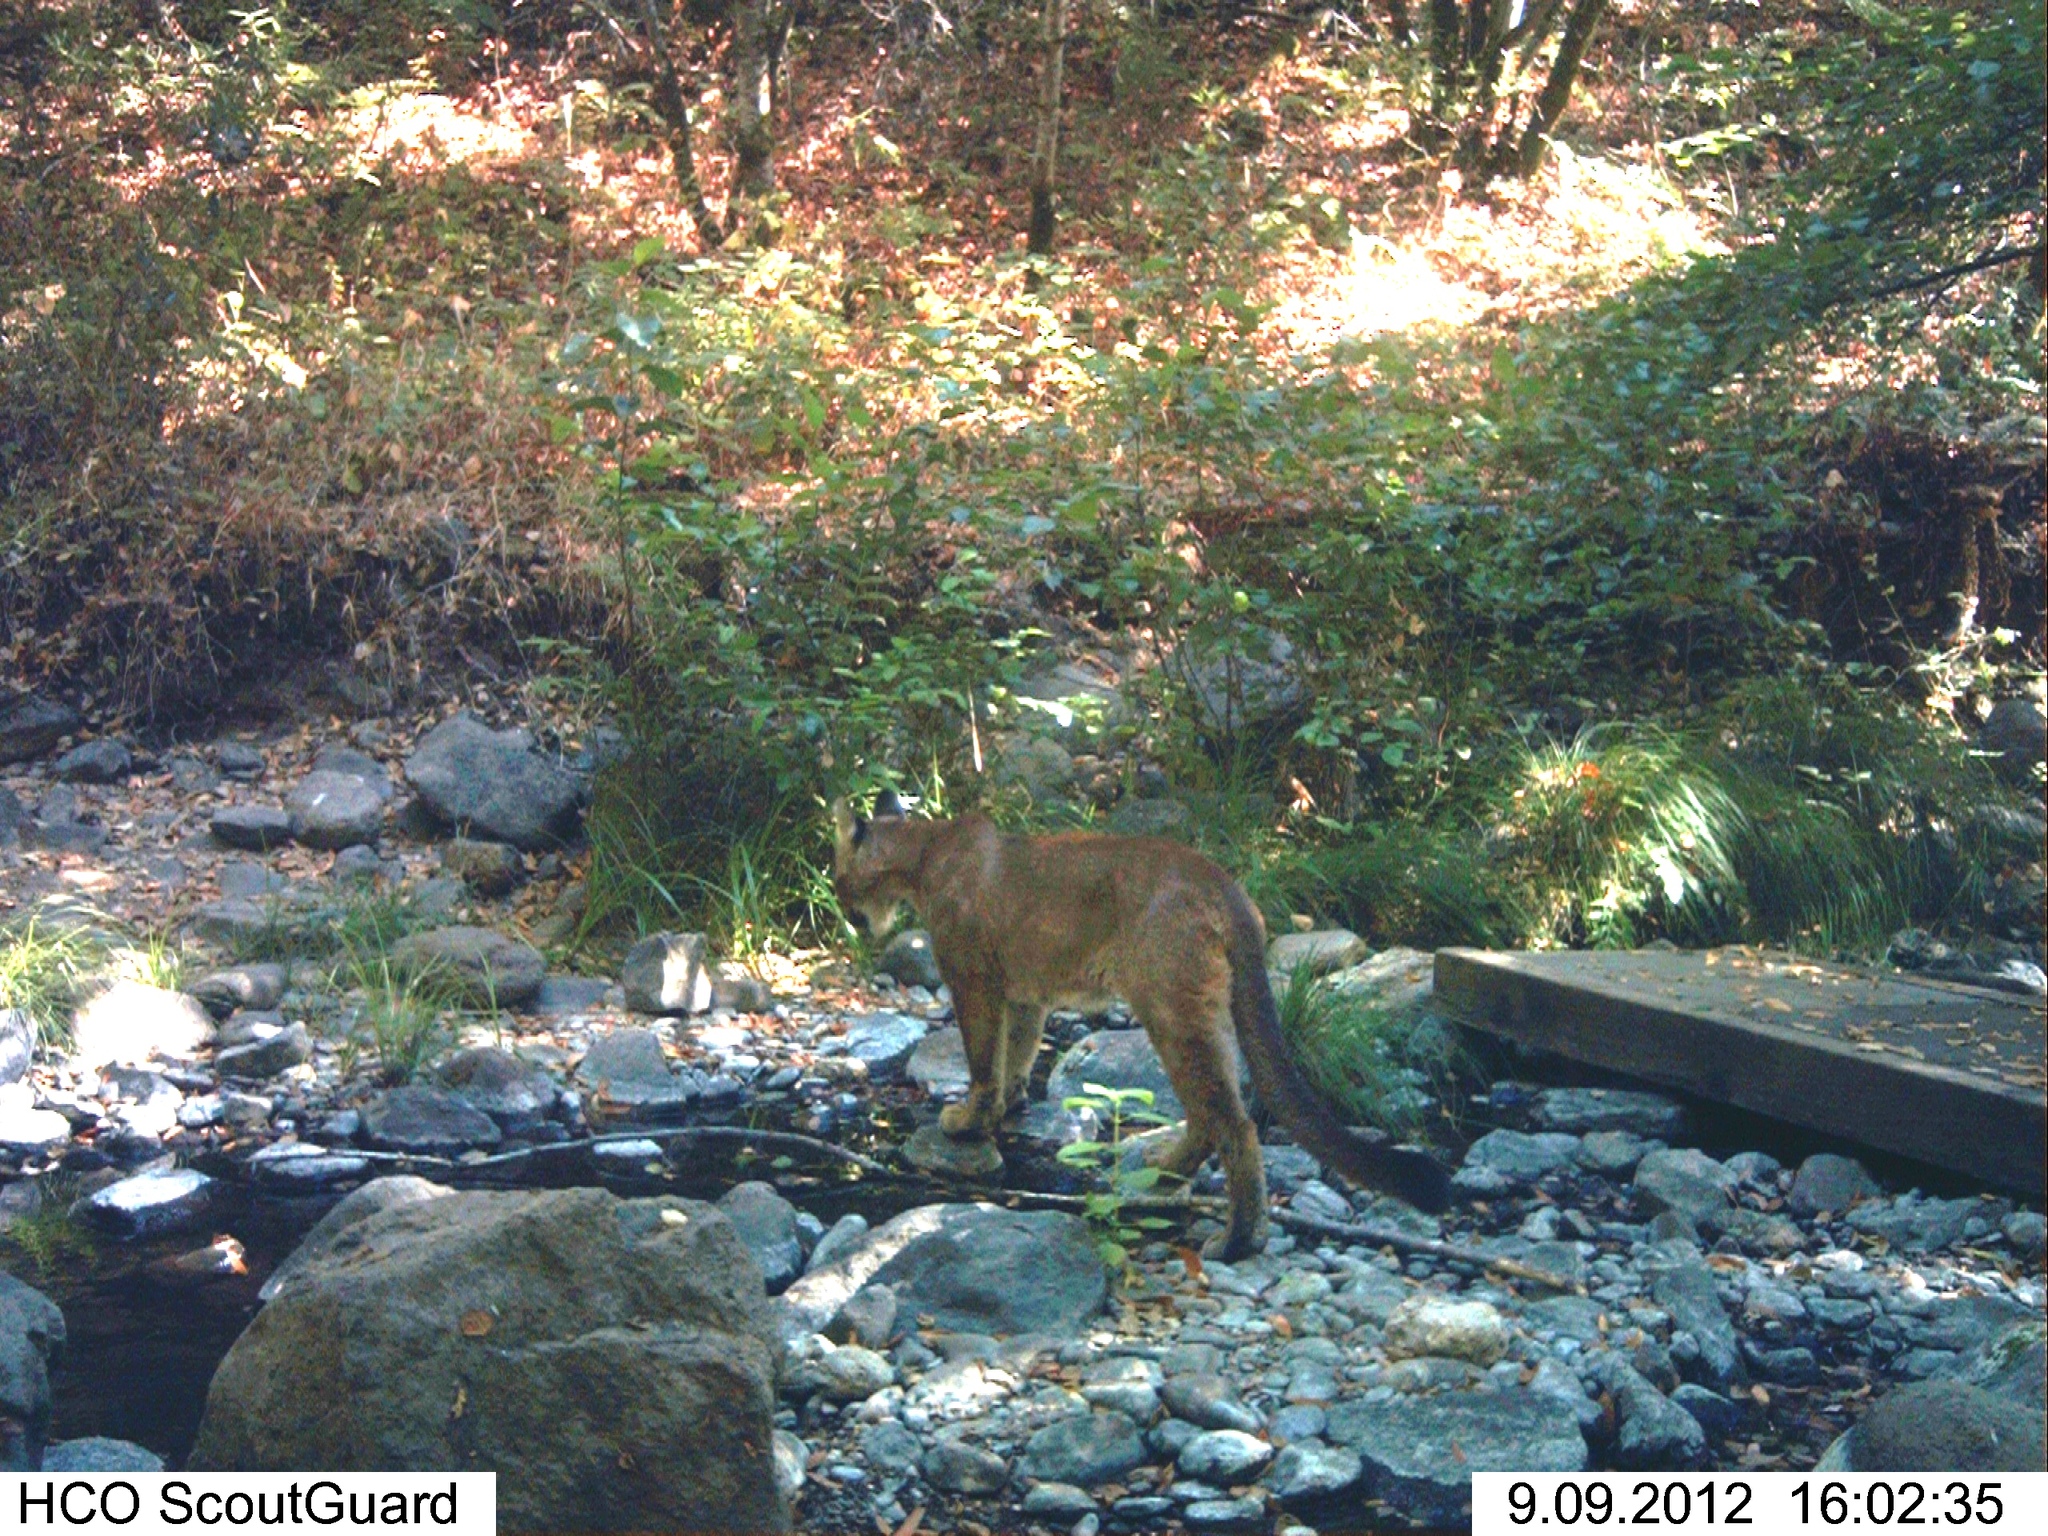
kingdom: Animalia
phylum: Chordata
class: Mammalia
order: Carnivora
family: Felidae
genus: Puma
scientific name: Puma concolor
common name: Puma
